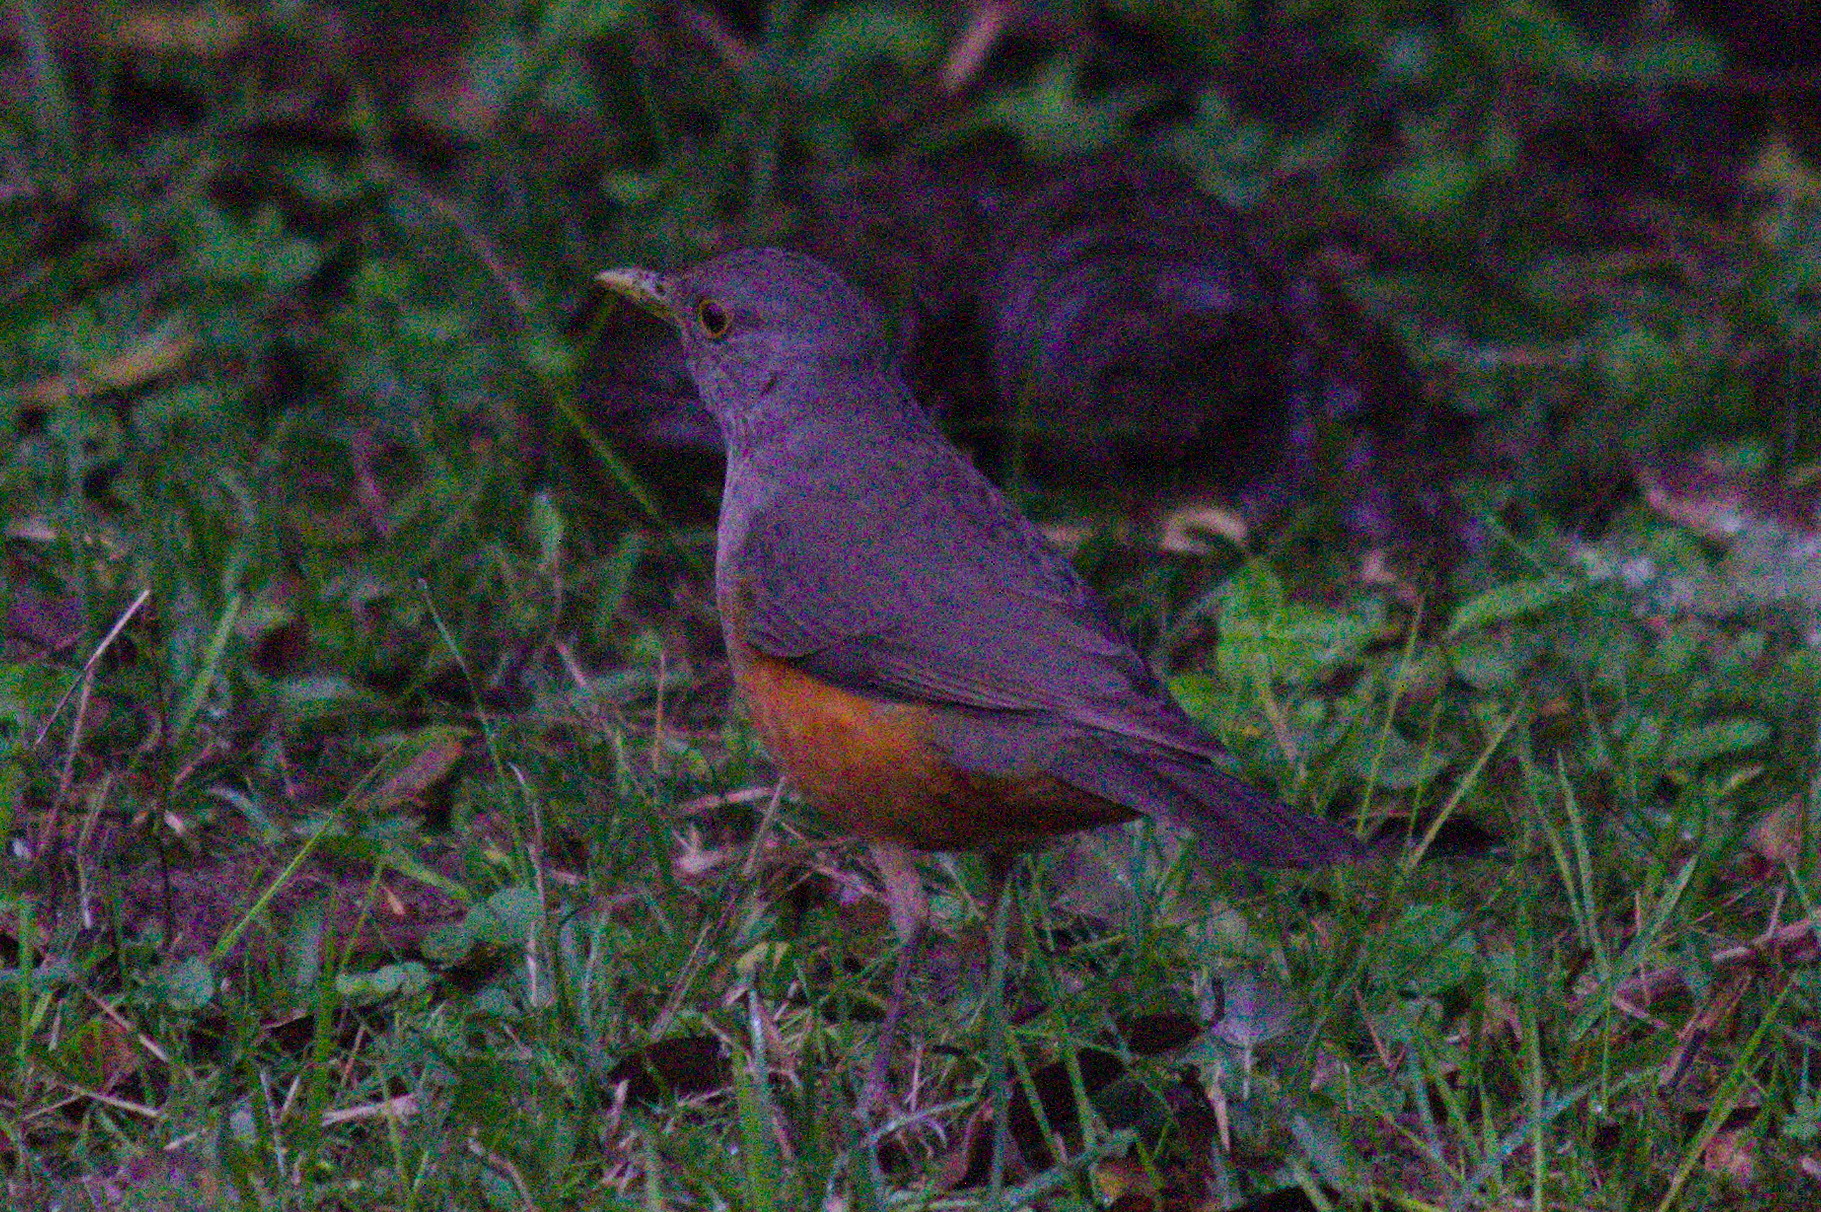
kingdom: Animalia
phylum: Chordata
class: Aves
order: Passeriformes
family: Turdidae
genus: Turdus
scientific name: Turdus rufiventris
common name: Rufous-bellied thrush
